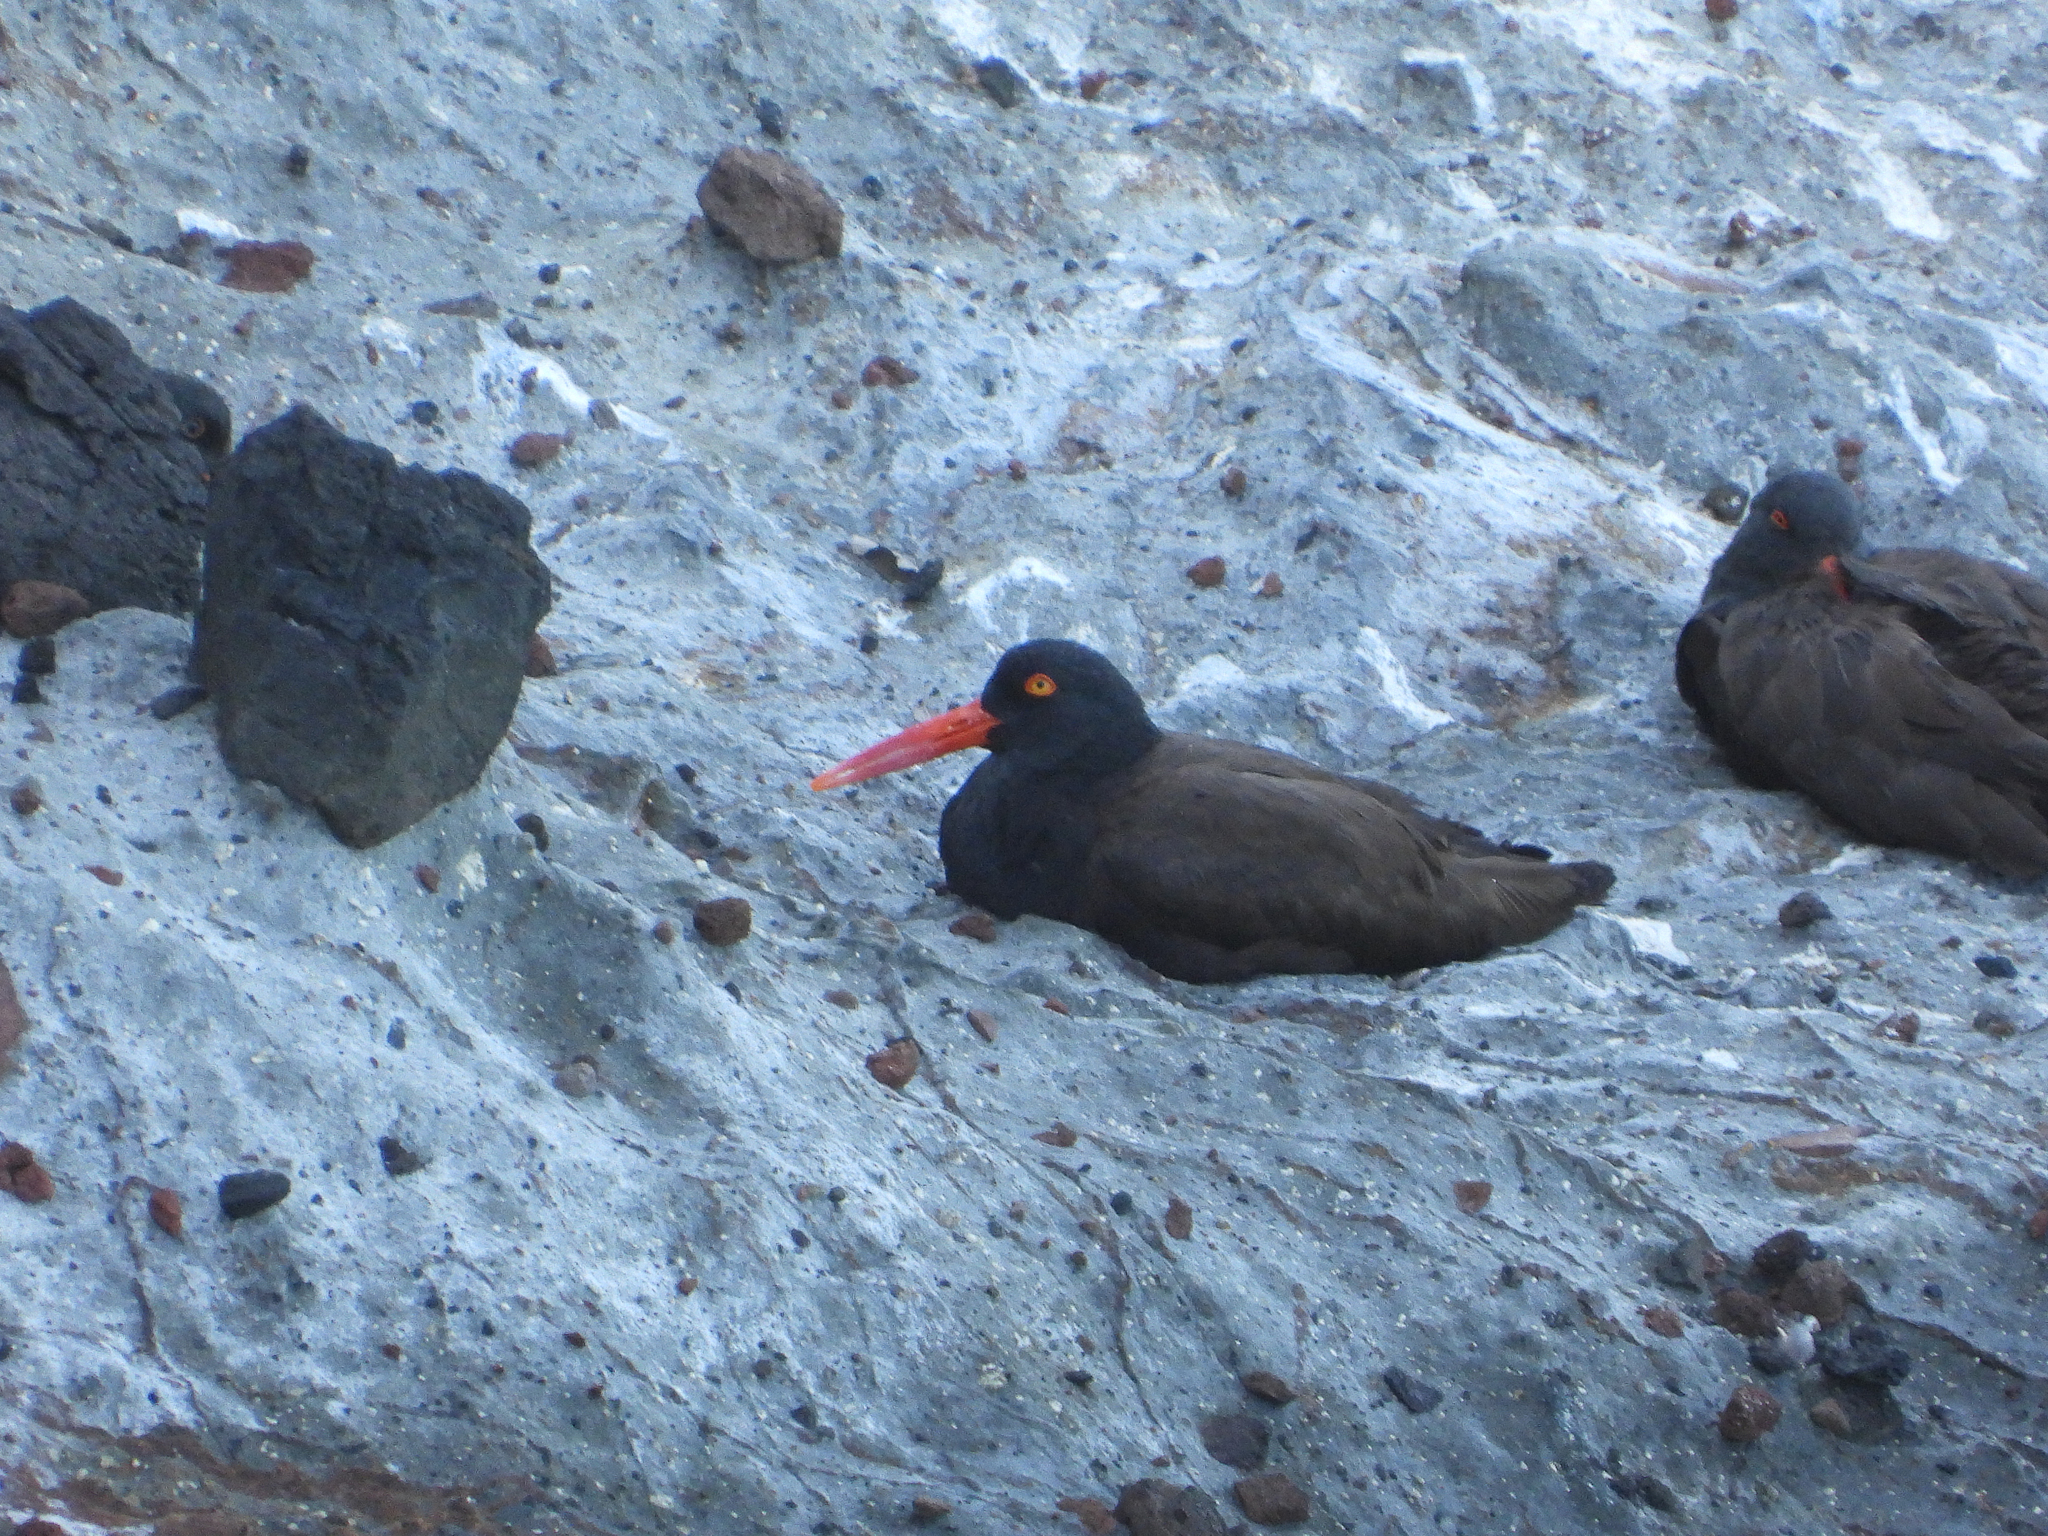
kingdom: Animalia
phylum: Chordata
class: Aves
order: Charadriiformes
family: Haematopodidae
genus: Haematopus
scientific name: Haematopus bachmani
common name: Black oystercatcher
